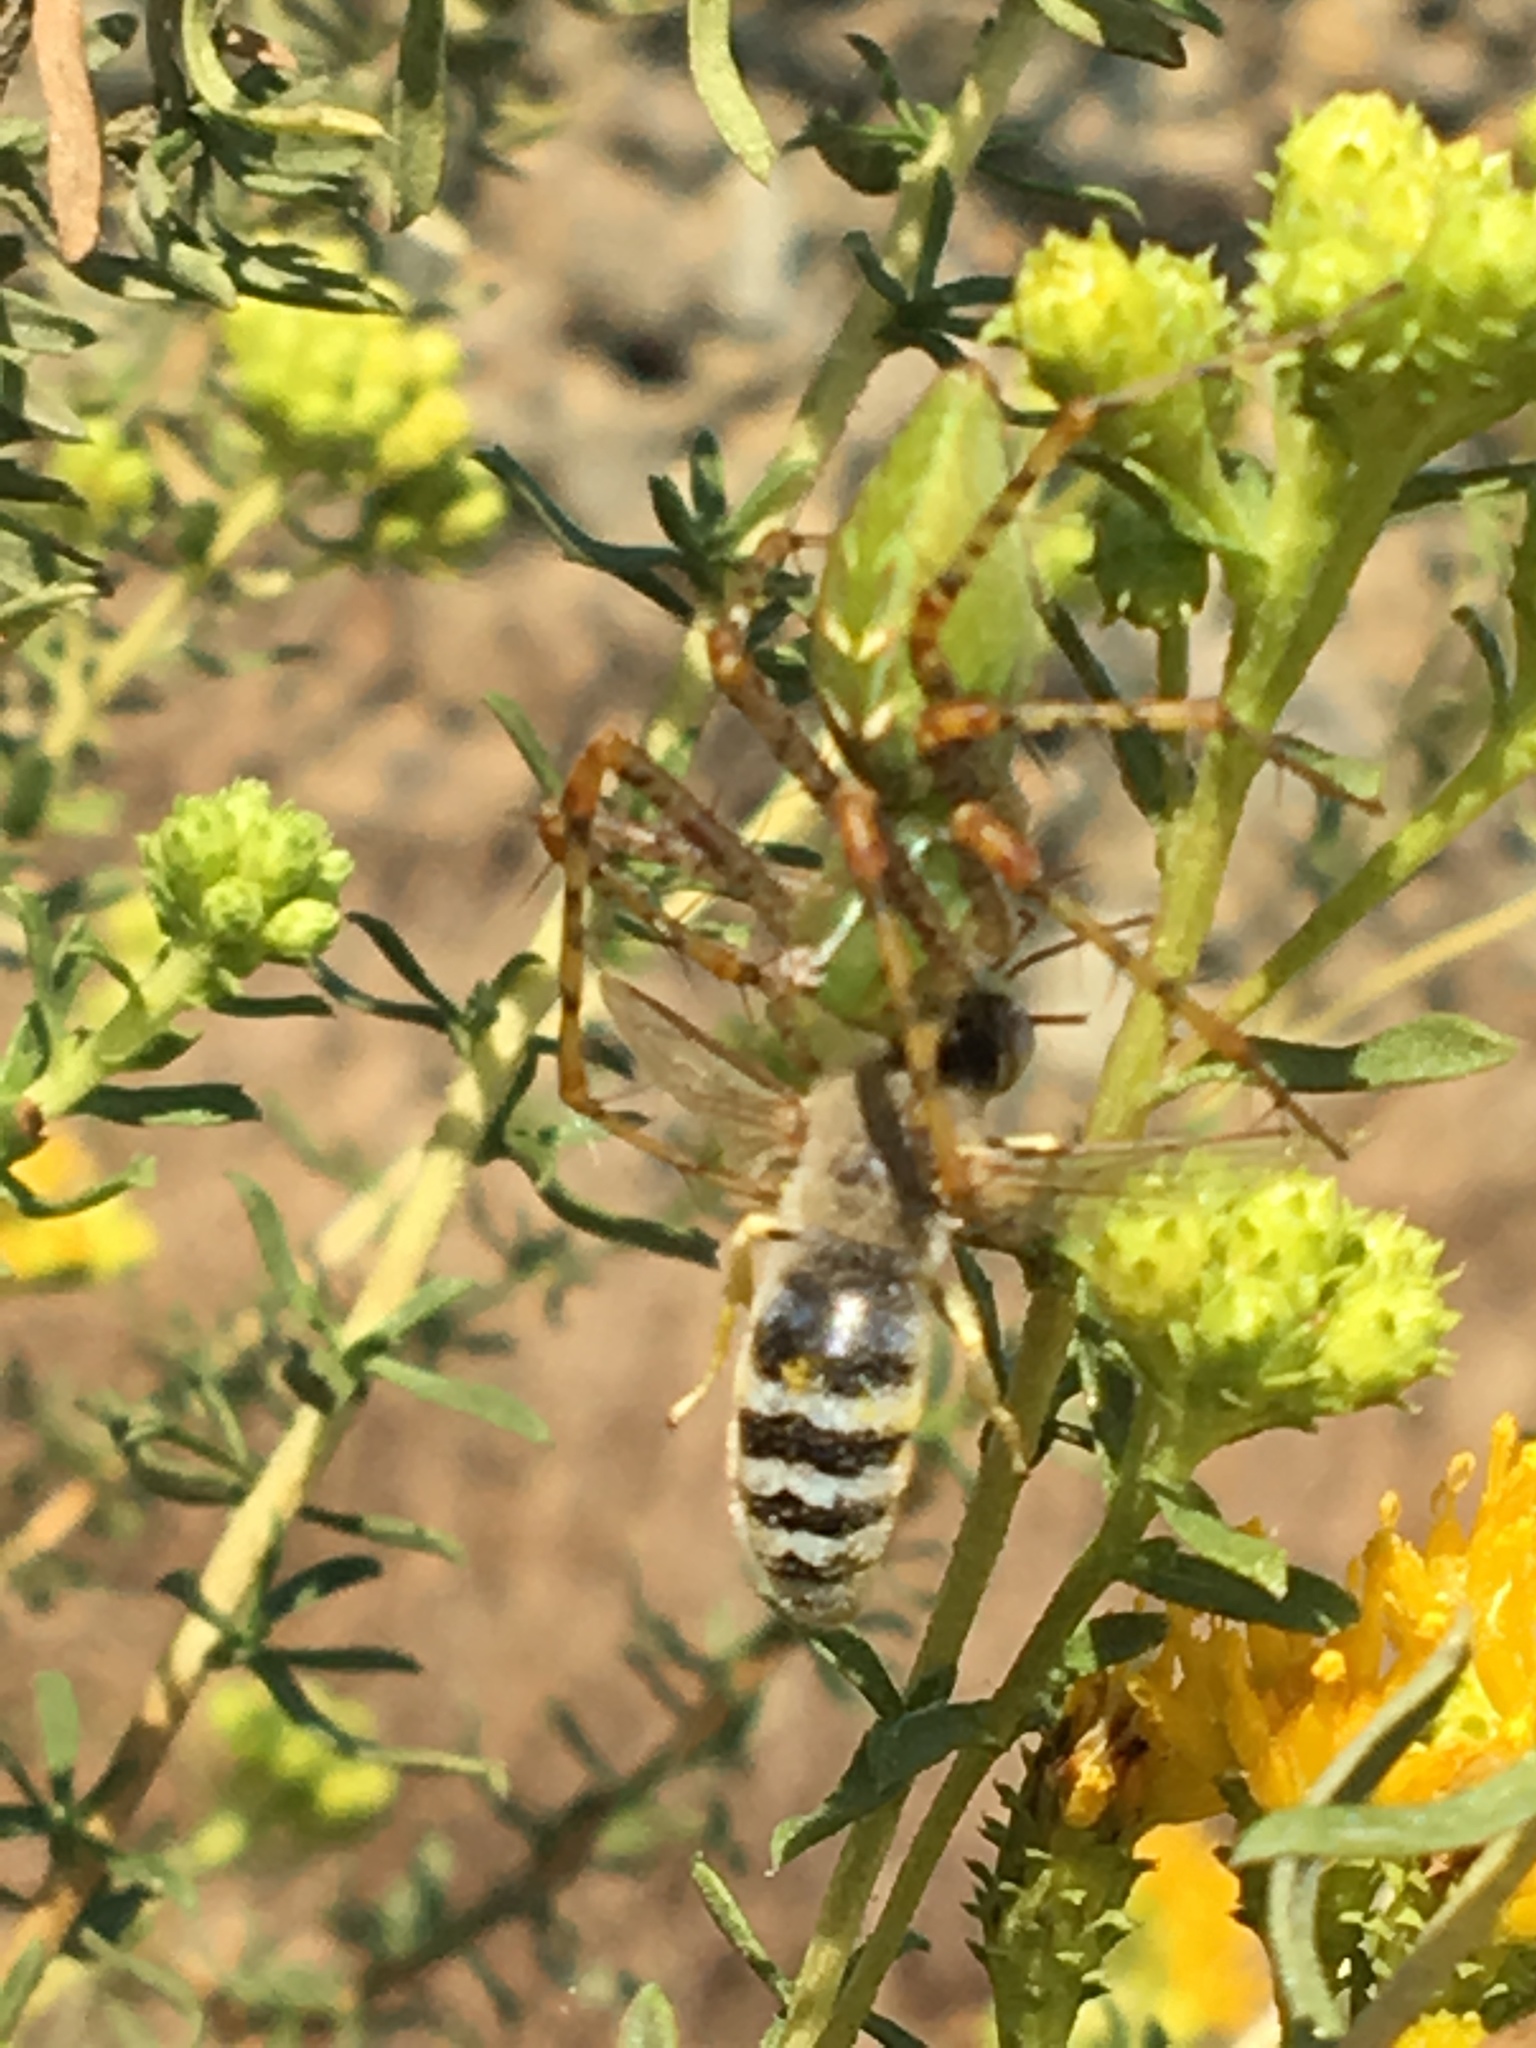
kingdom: Animalia
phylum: Arthropoda
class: Arachnida
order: Araneae
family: Oxyopidae
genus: Peucetia
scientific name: Peucetia viridans
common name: Lynx spiders
